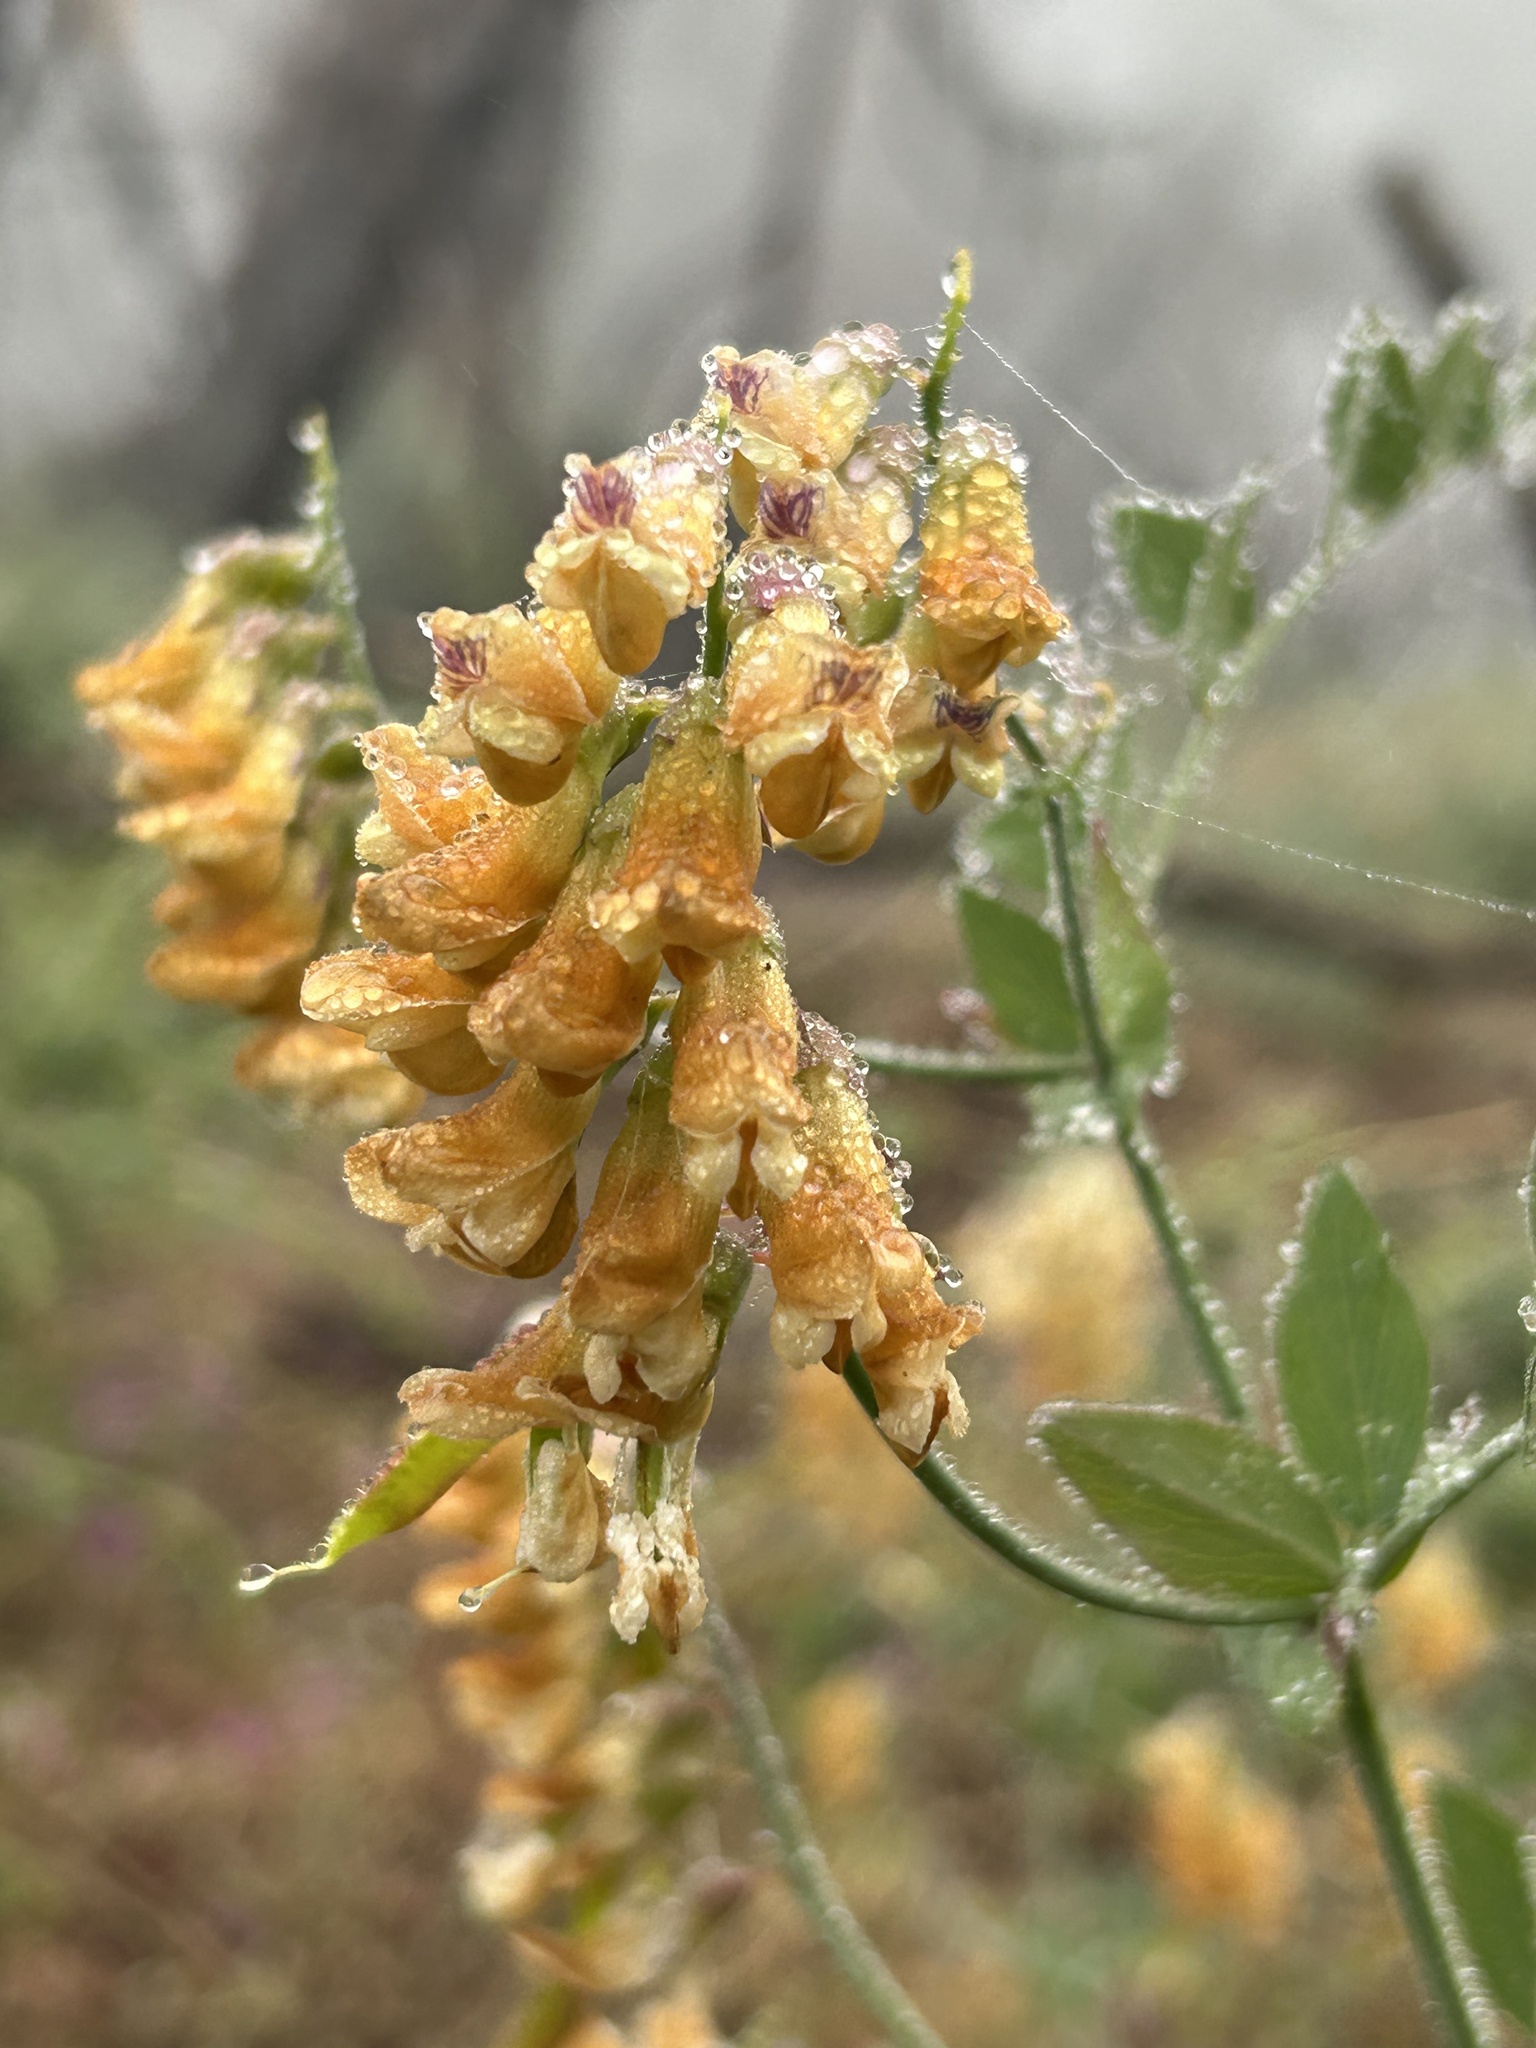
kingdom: Plantae
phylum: Tracheophyta
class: Magnoliopsida
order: Fabales
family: Fabaceae
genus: Lathyrus
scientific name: Lathyrus sulphureus
